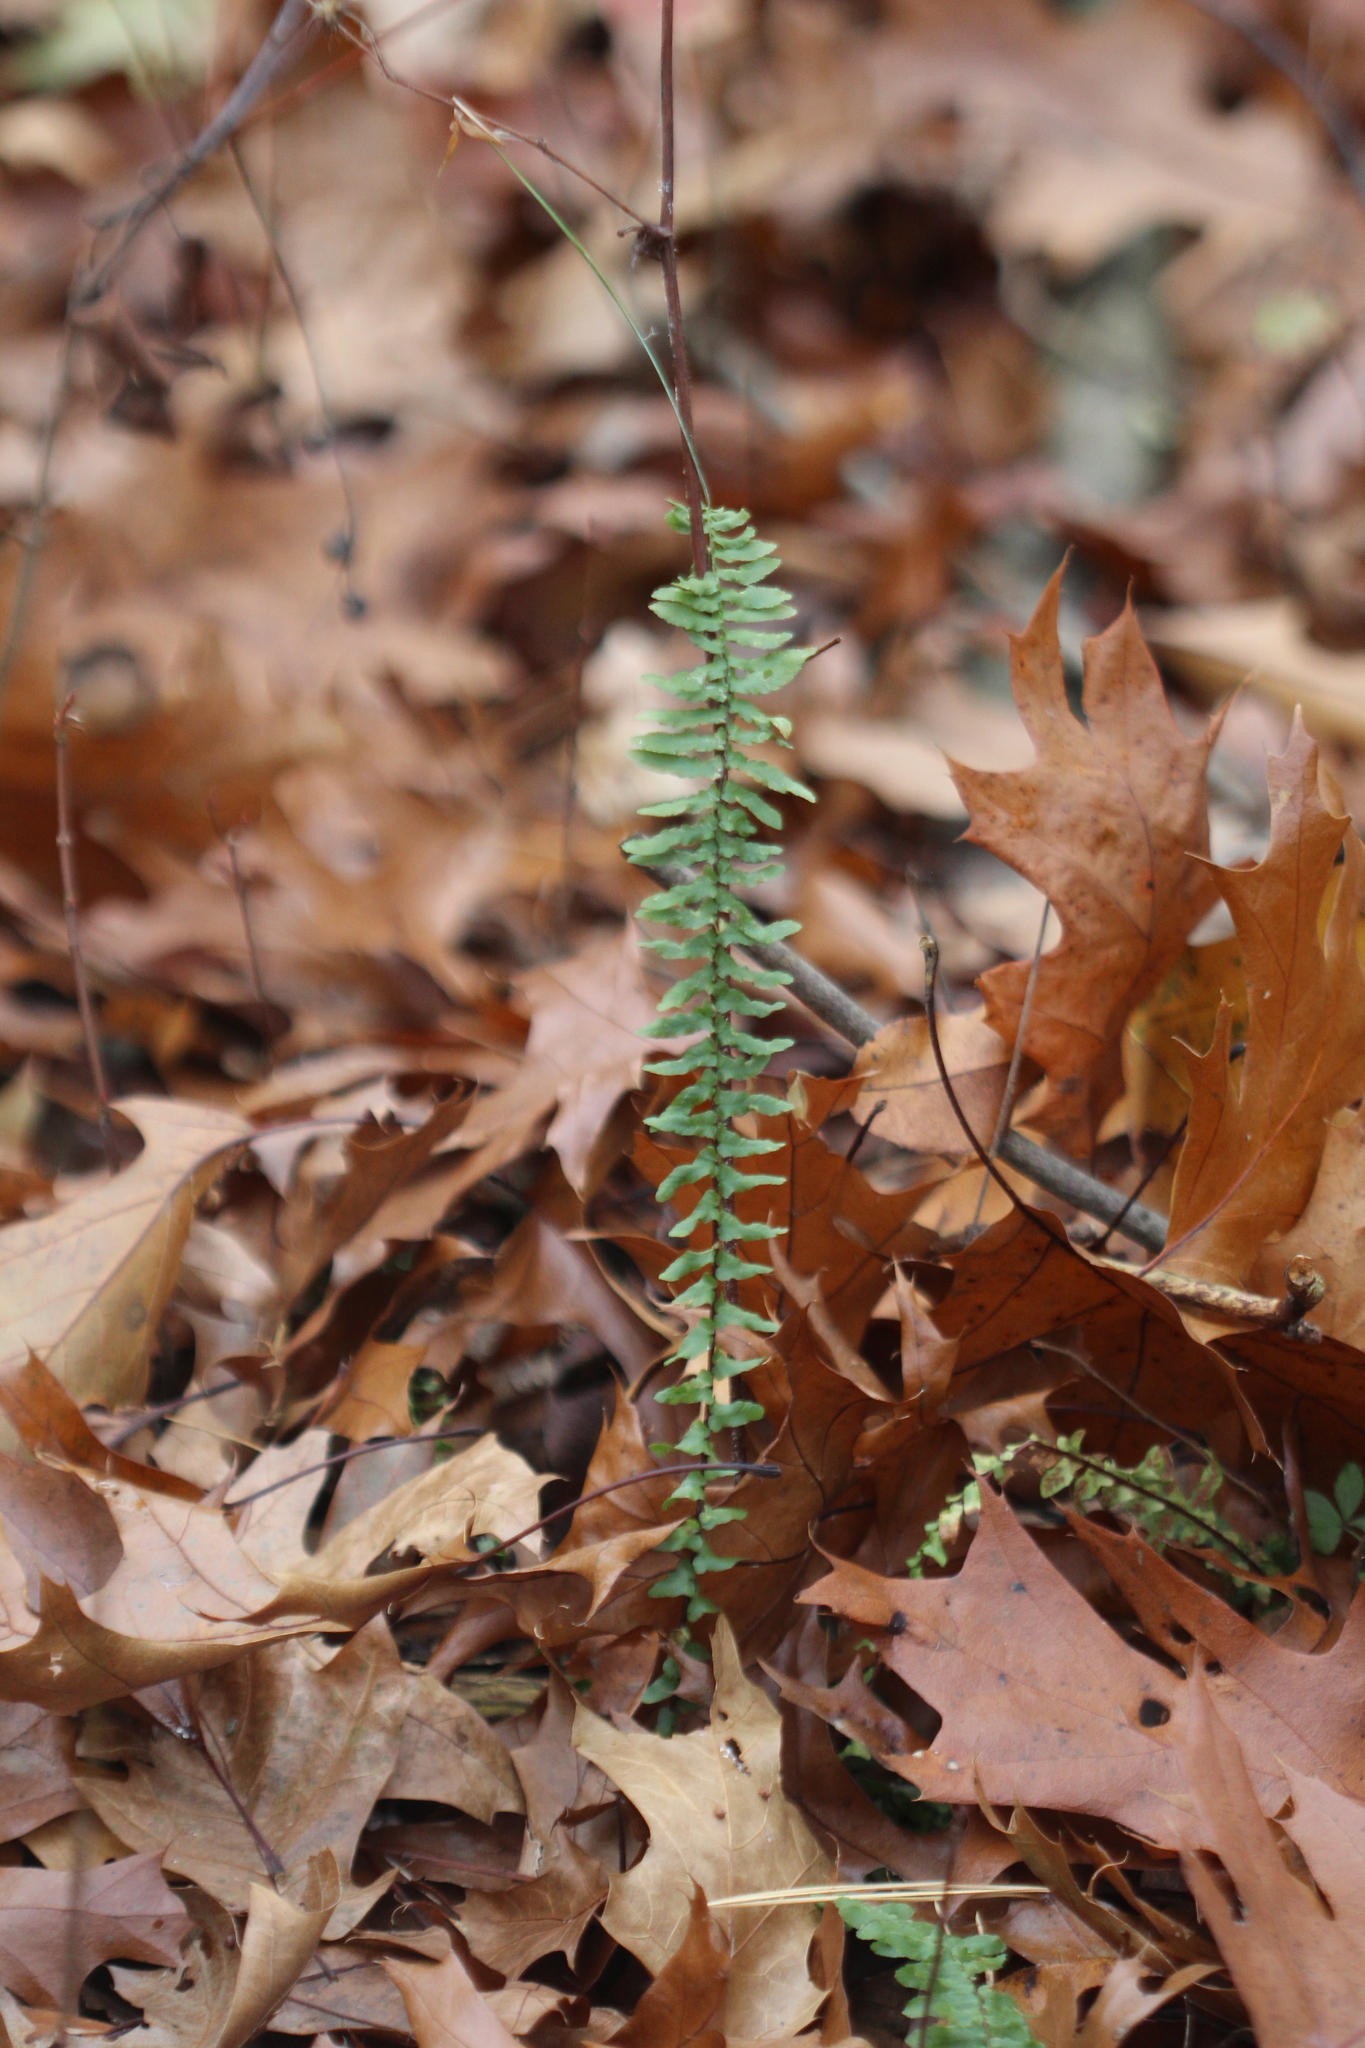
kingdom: Plantae
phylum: Tracheophyta
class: Polypodiopsida
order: Polypodiales
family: Aspleniaceae
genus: Asplenium
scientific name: Asplenium platyneuron
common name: Ebony spleenwort
